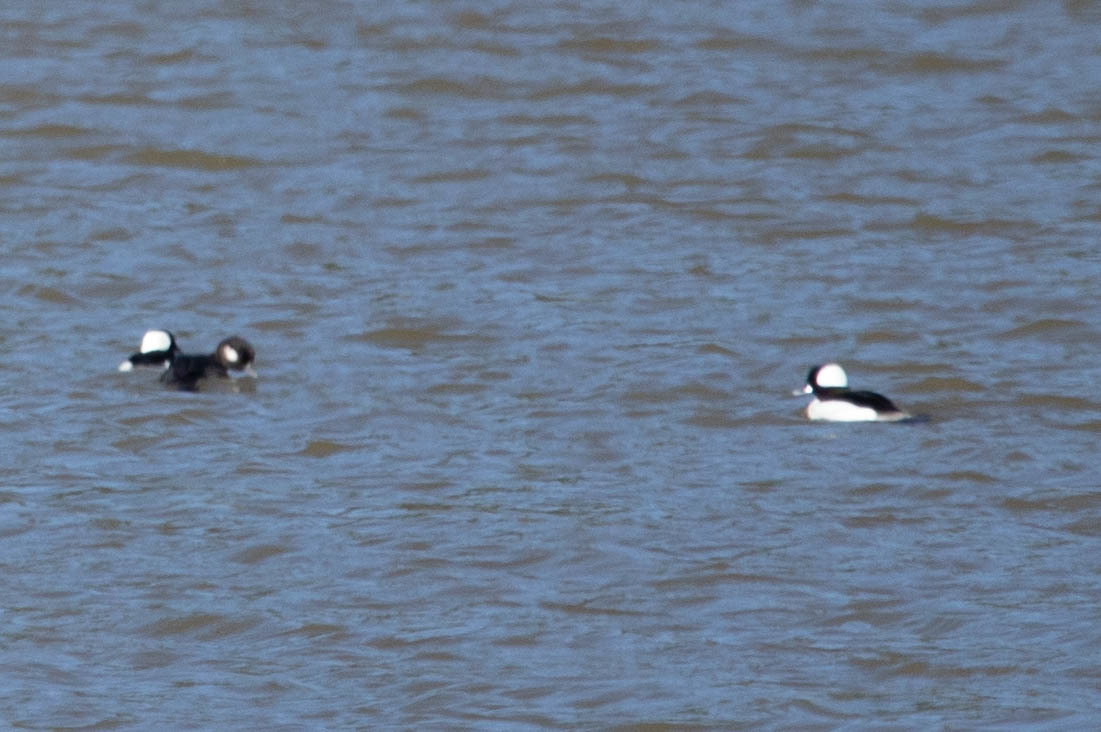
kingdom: Animalia
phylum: Chordata
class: Aves
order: Anseriformes
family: Anatidae
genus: Bucephala
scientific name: Bucephala albeola
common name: Bufflehead
